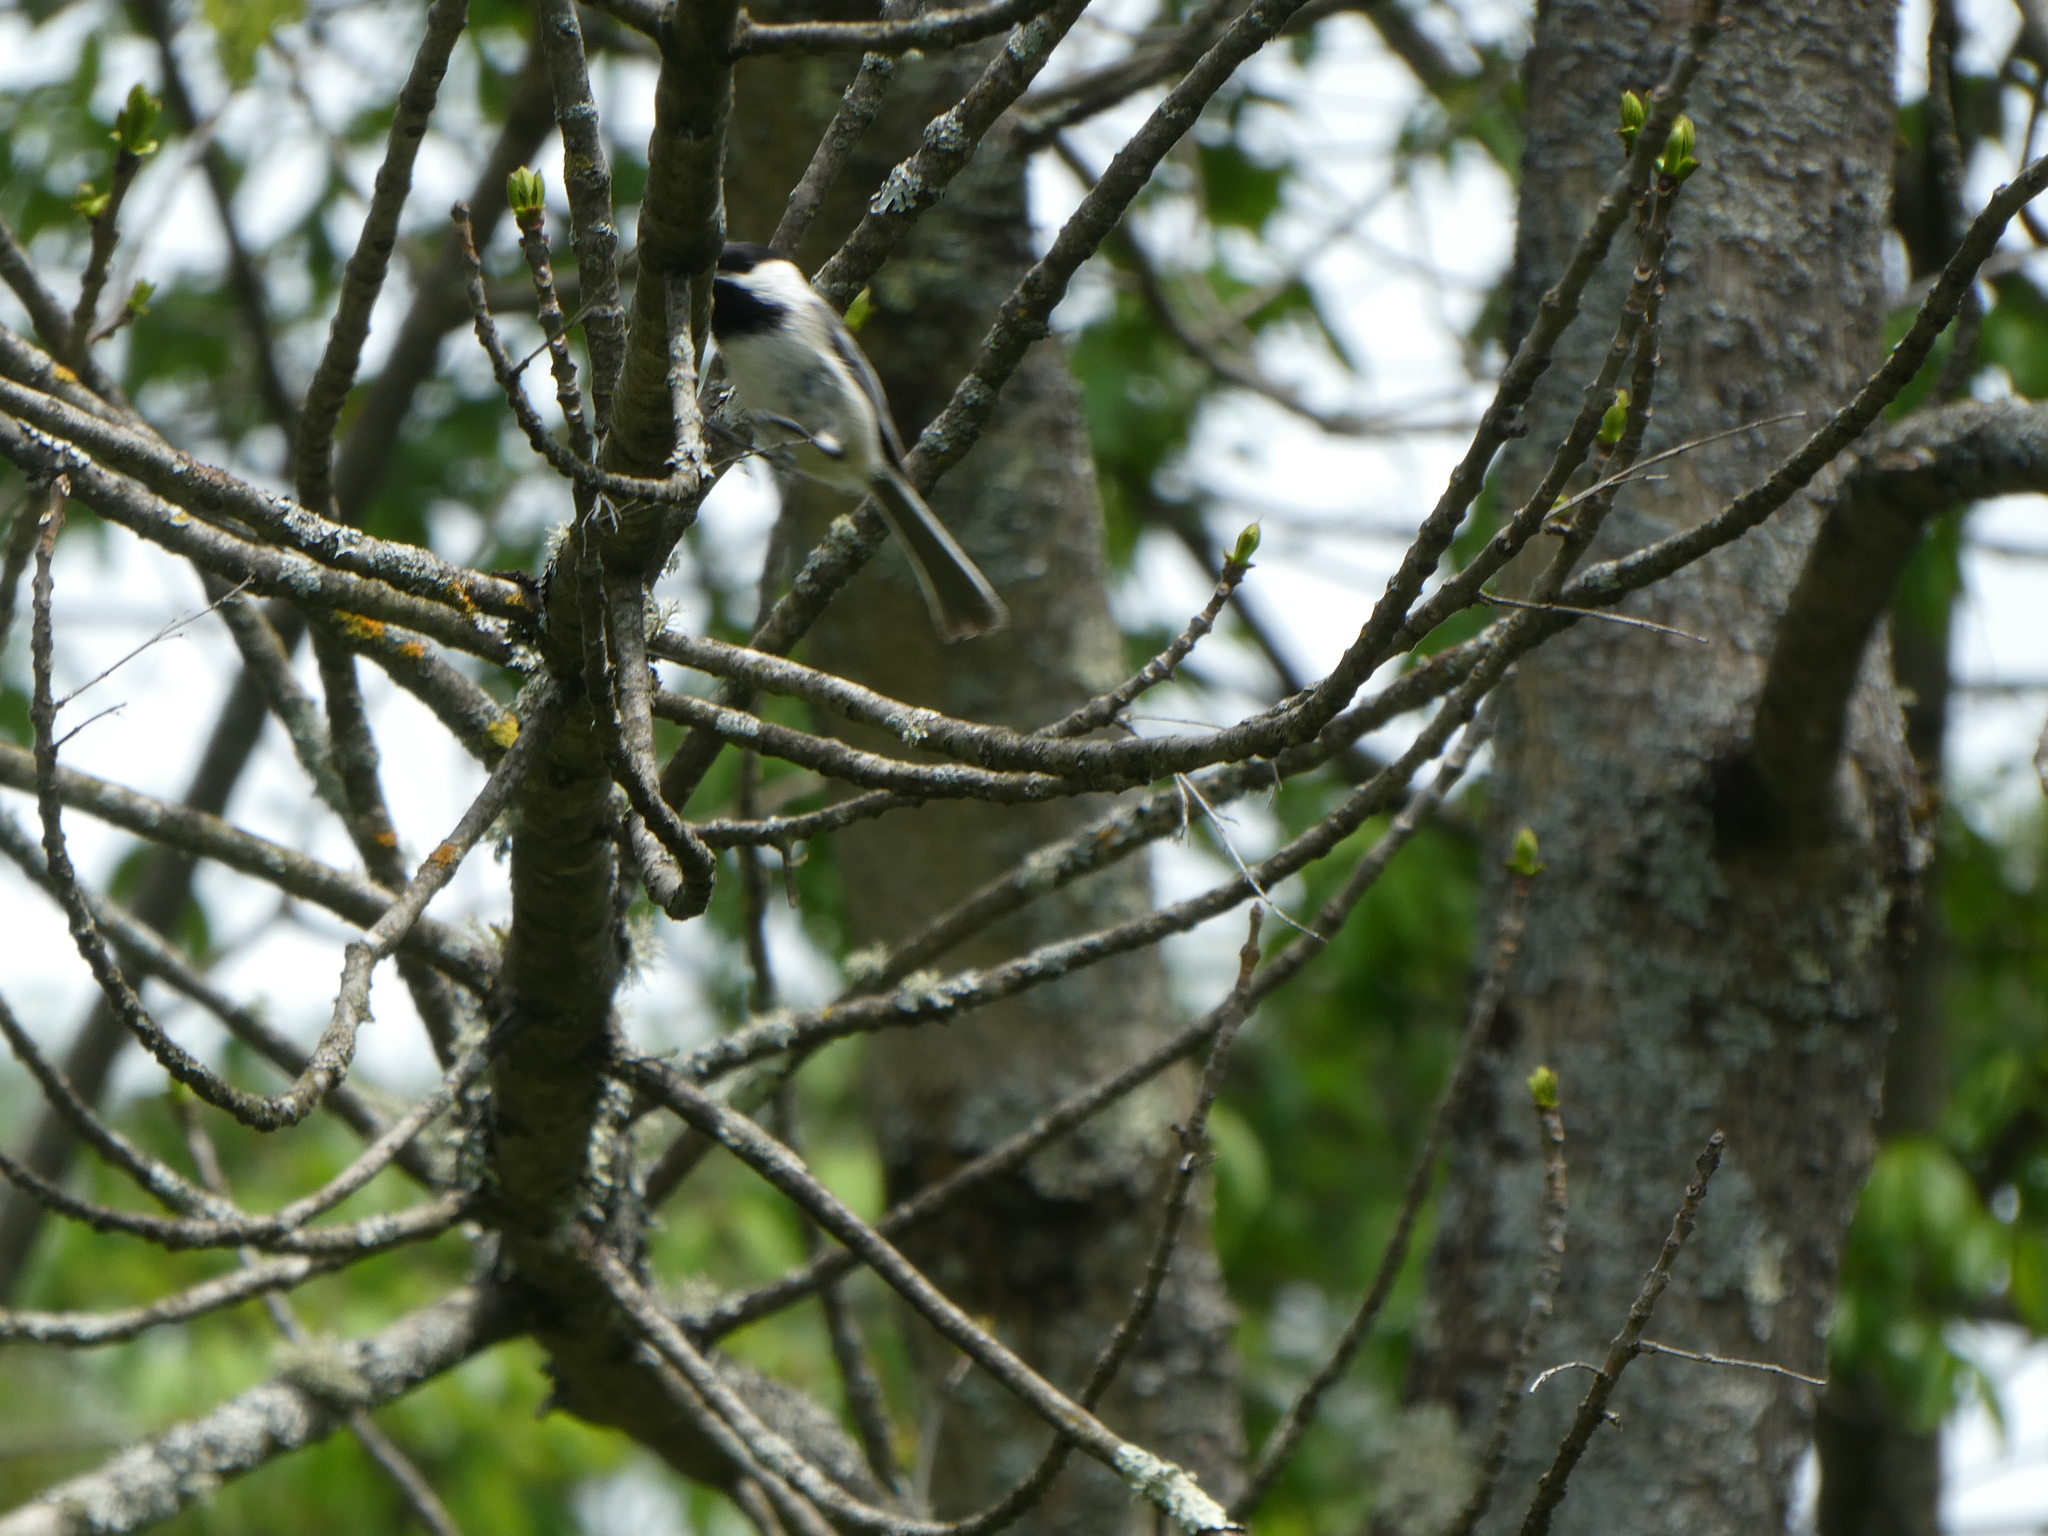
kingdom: Animalia
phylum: Chordata
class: Aves
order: Passeriformes
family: Paridae
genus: Poecile
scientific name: Poecile atricapillus
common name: Black-capped chickadee
